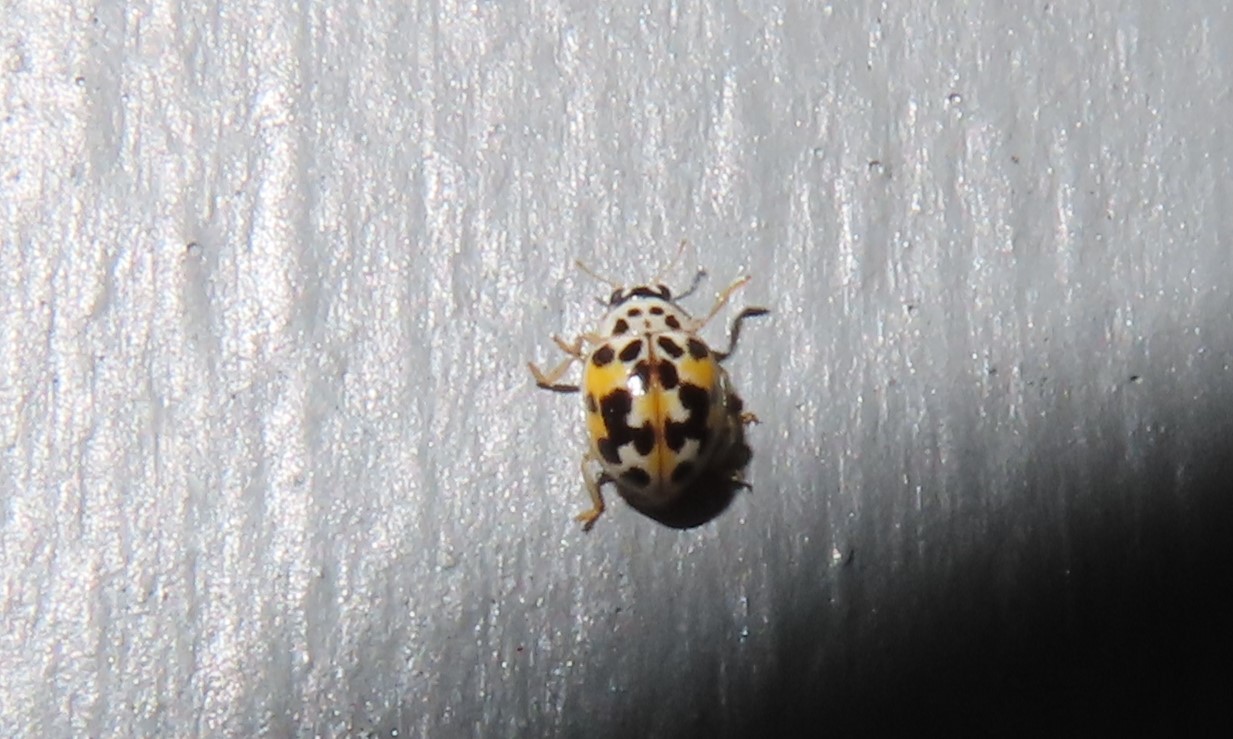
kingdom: Animalia
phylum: Arthropoda
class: Insecta
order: Coleoptera
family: Coccinellidae
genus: Psyllobora
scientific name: Psyllobora vigintimaculata
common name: Ladybird beetle
